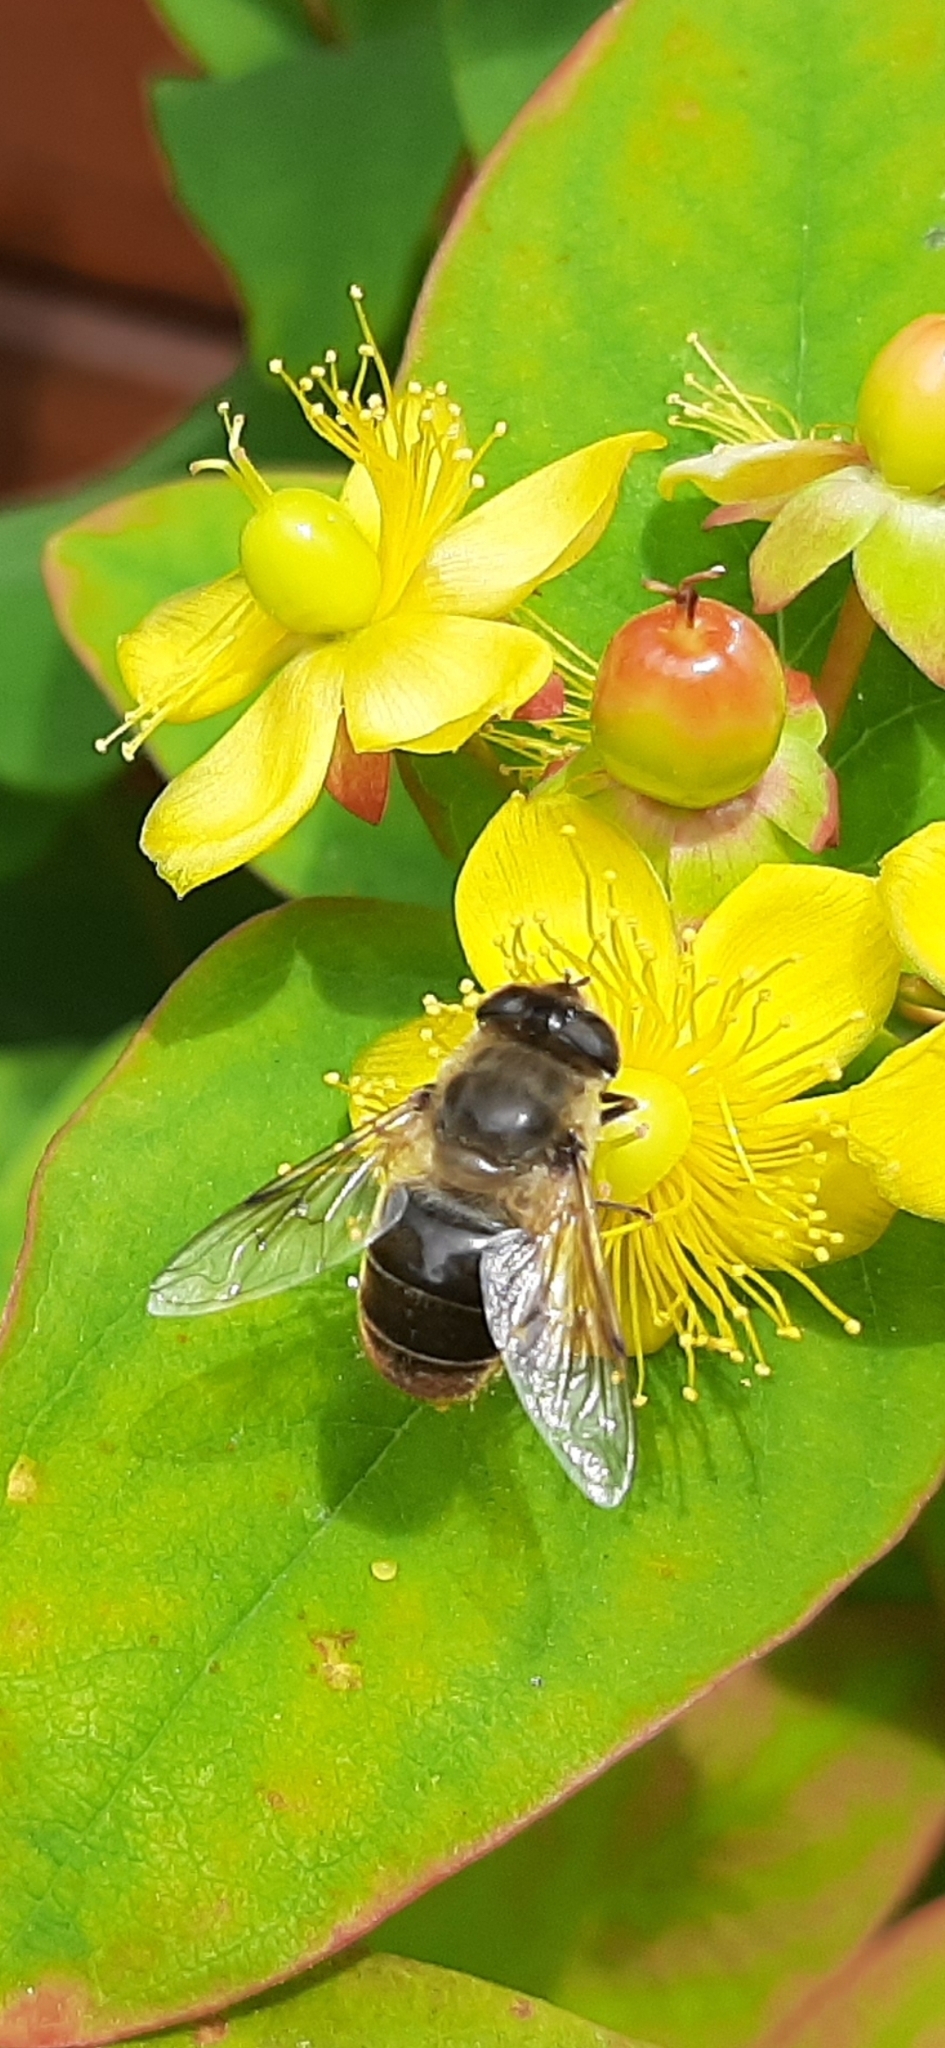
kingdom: Animalia
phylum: Arthropoda
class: Insecta
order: Diptera
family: Syrphidae
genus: Eristalis
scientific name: Eristalis tenax
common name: Drone fly
